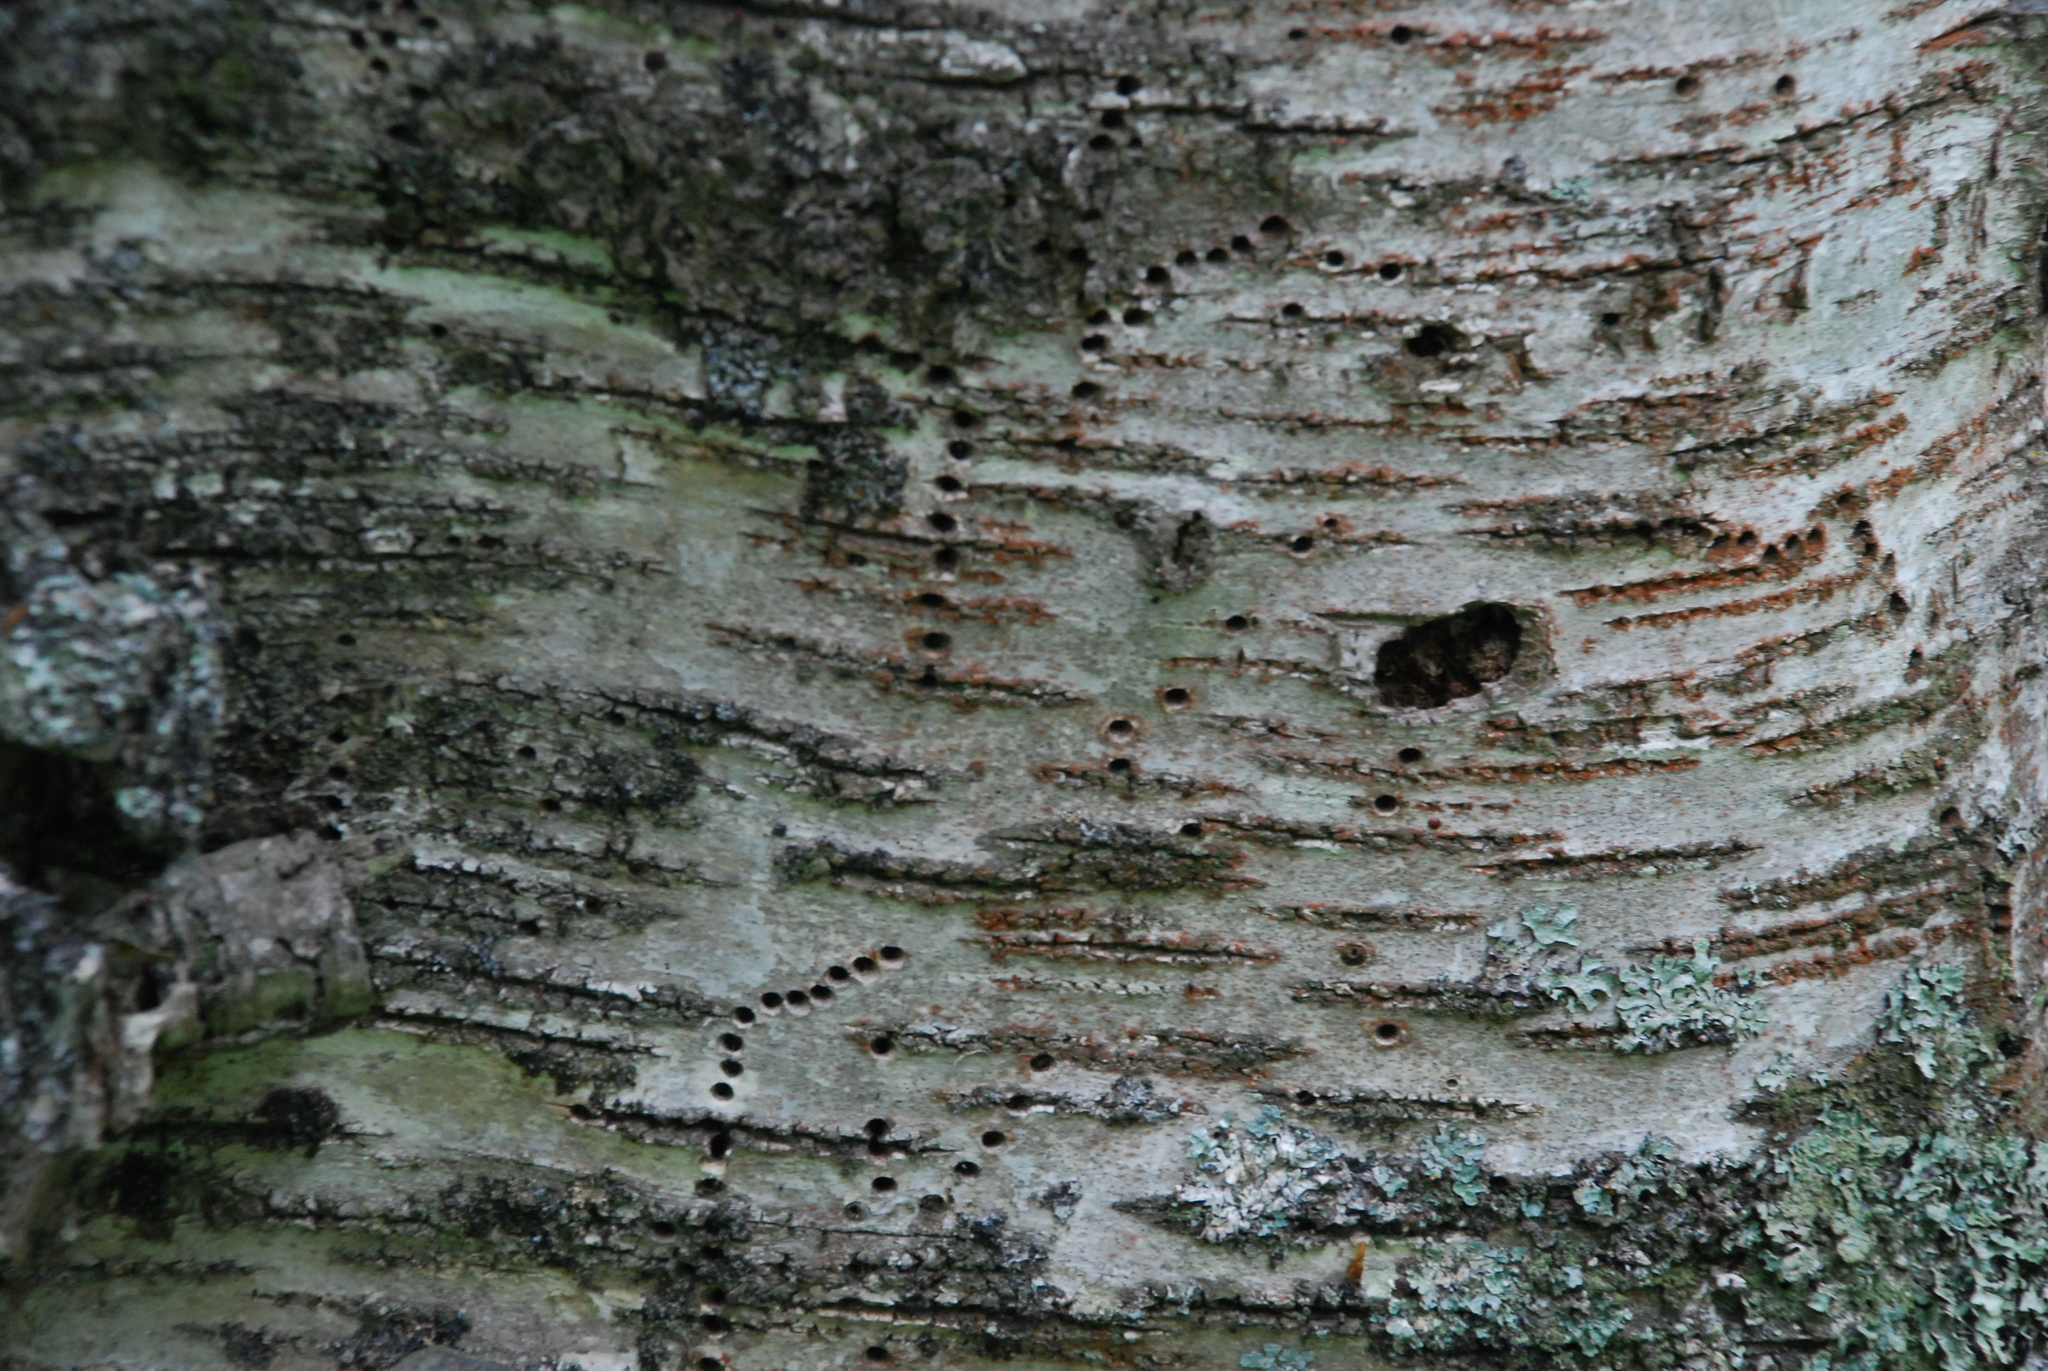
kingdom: Animalia
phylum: Arthropoda
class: Insecta
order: Coleoptera
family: Curculionidae
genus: Scolytus
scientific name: Scolytus ratzeburgii
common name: Birch bark beetle
